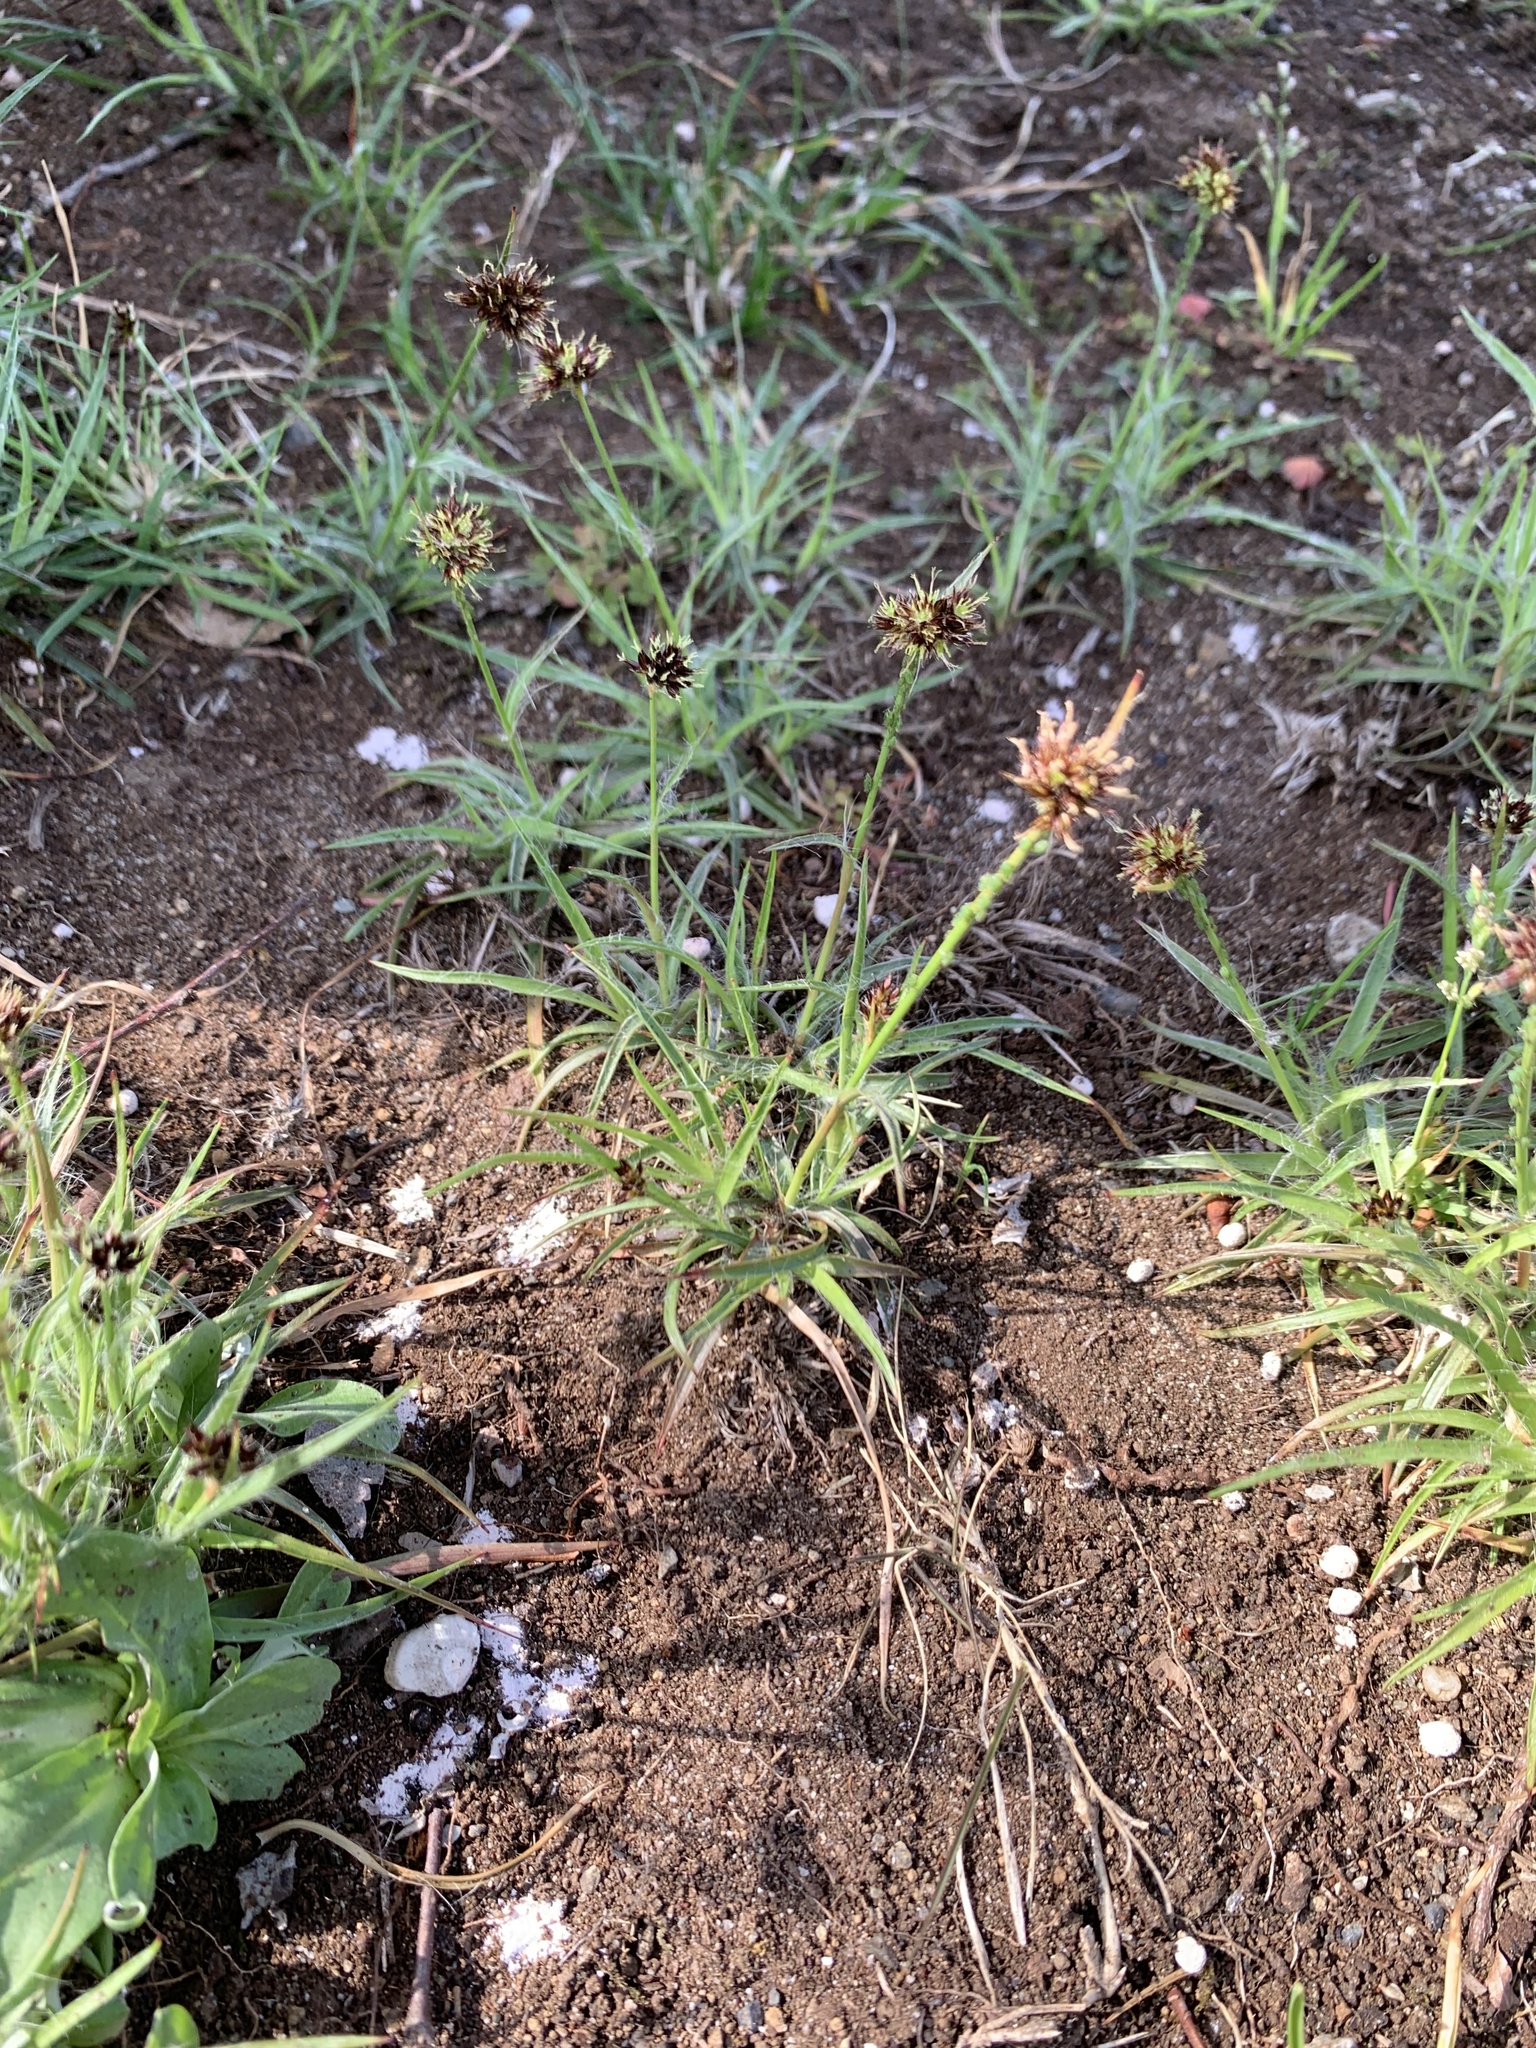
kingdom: Plantae
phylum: Tracheophyta
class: Liliopsida
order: Poales
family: Juncaceae
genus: Luzula
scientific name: Luzula capitata
